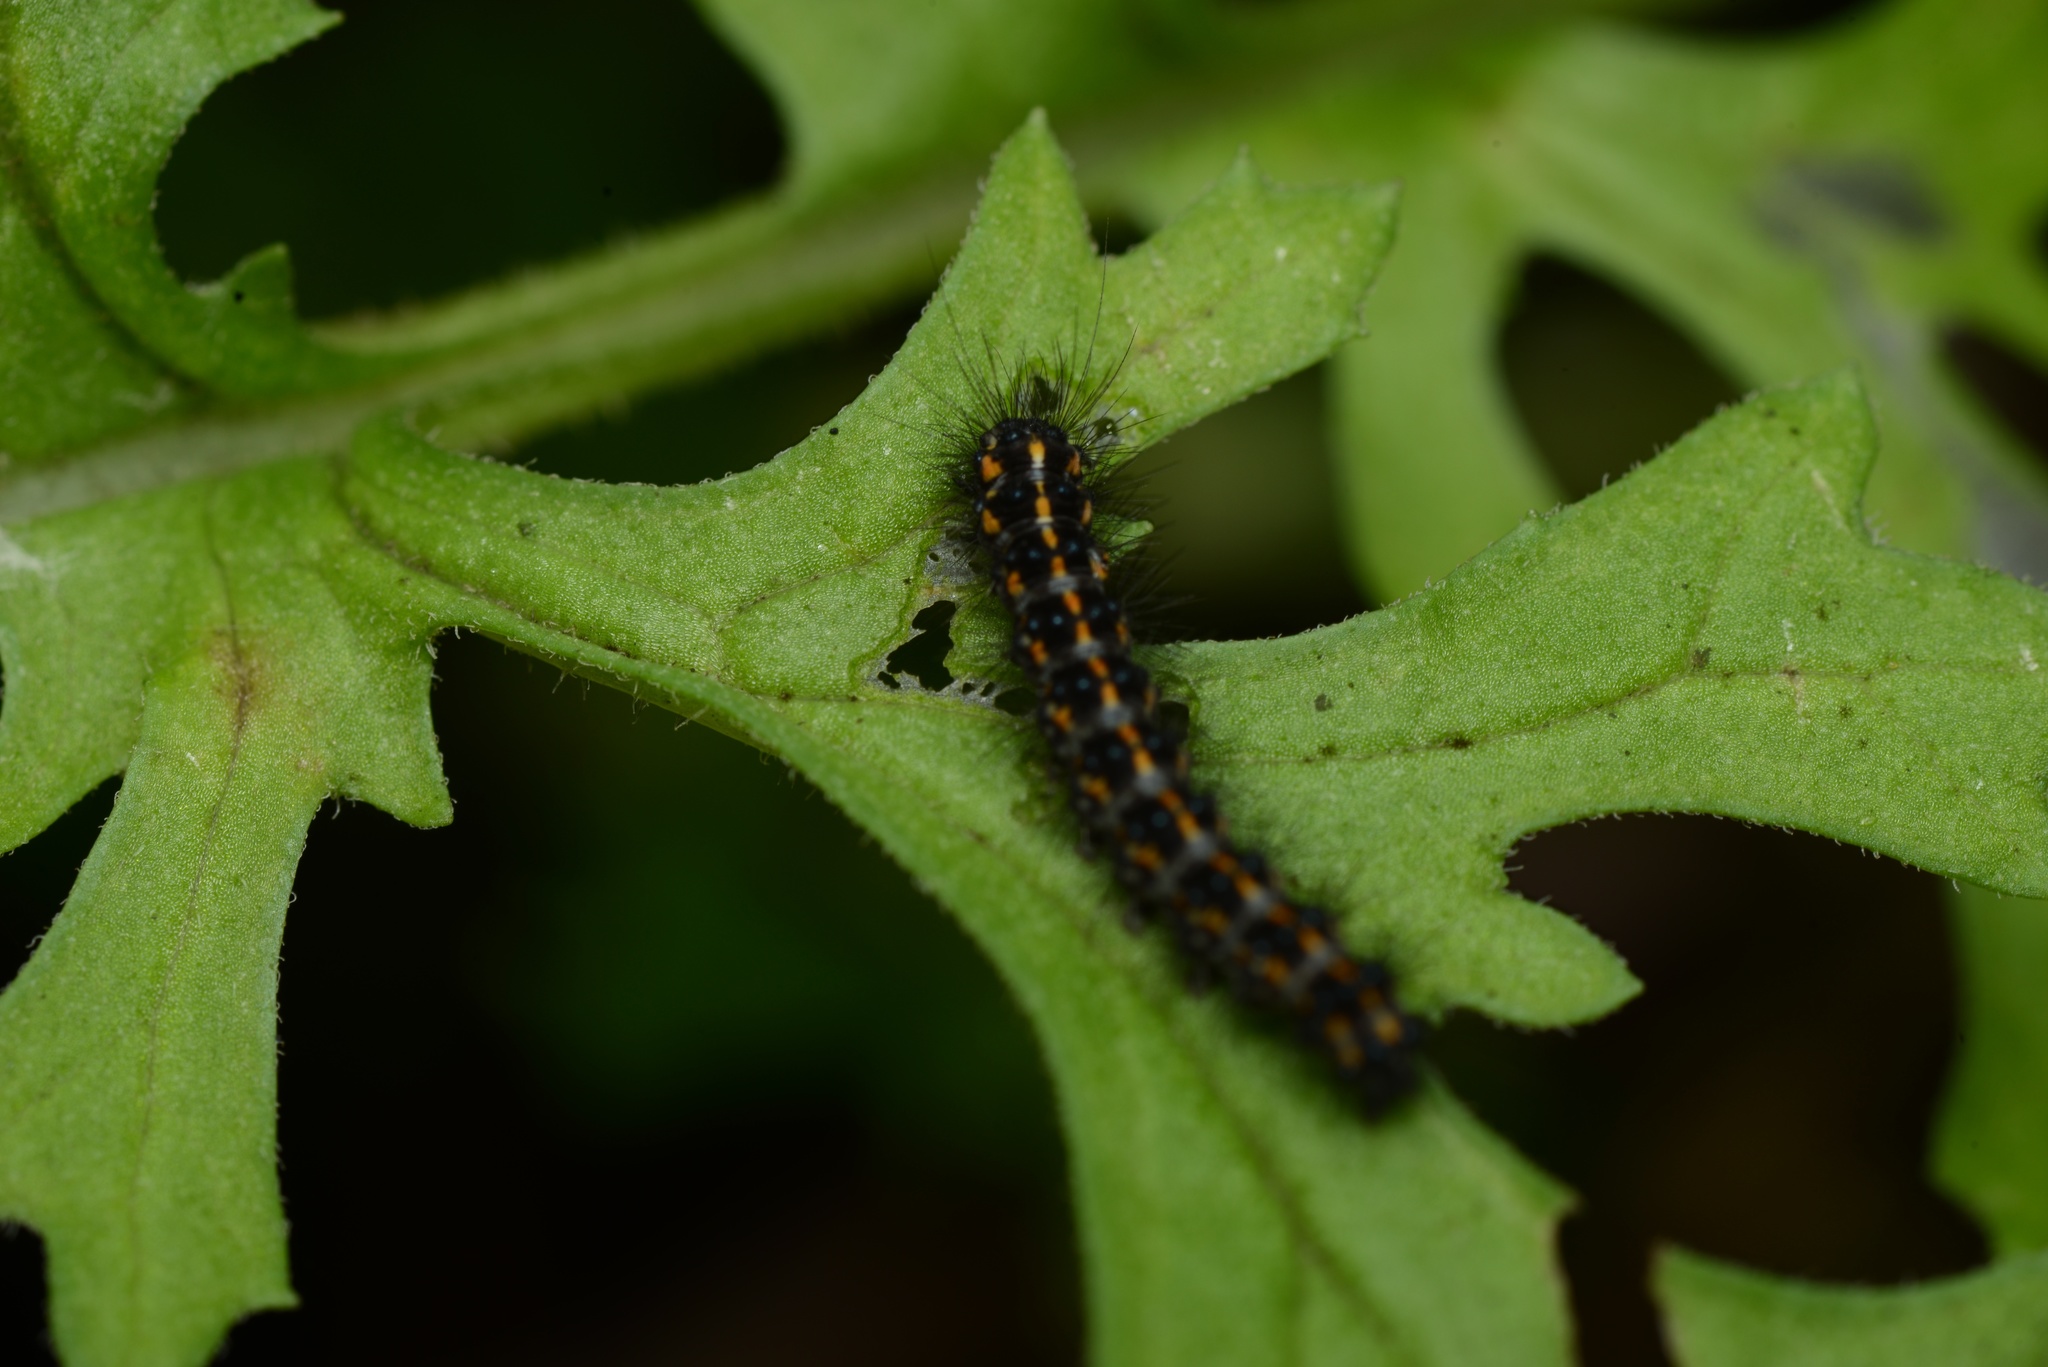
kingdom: Animalia
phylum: Arthropoda
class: Insecta
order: Lepidoptera
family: Erebidae
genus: Nyctemera
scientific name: Nyctemera annulatum
